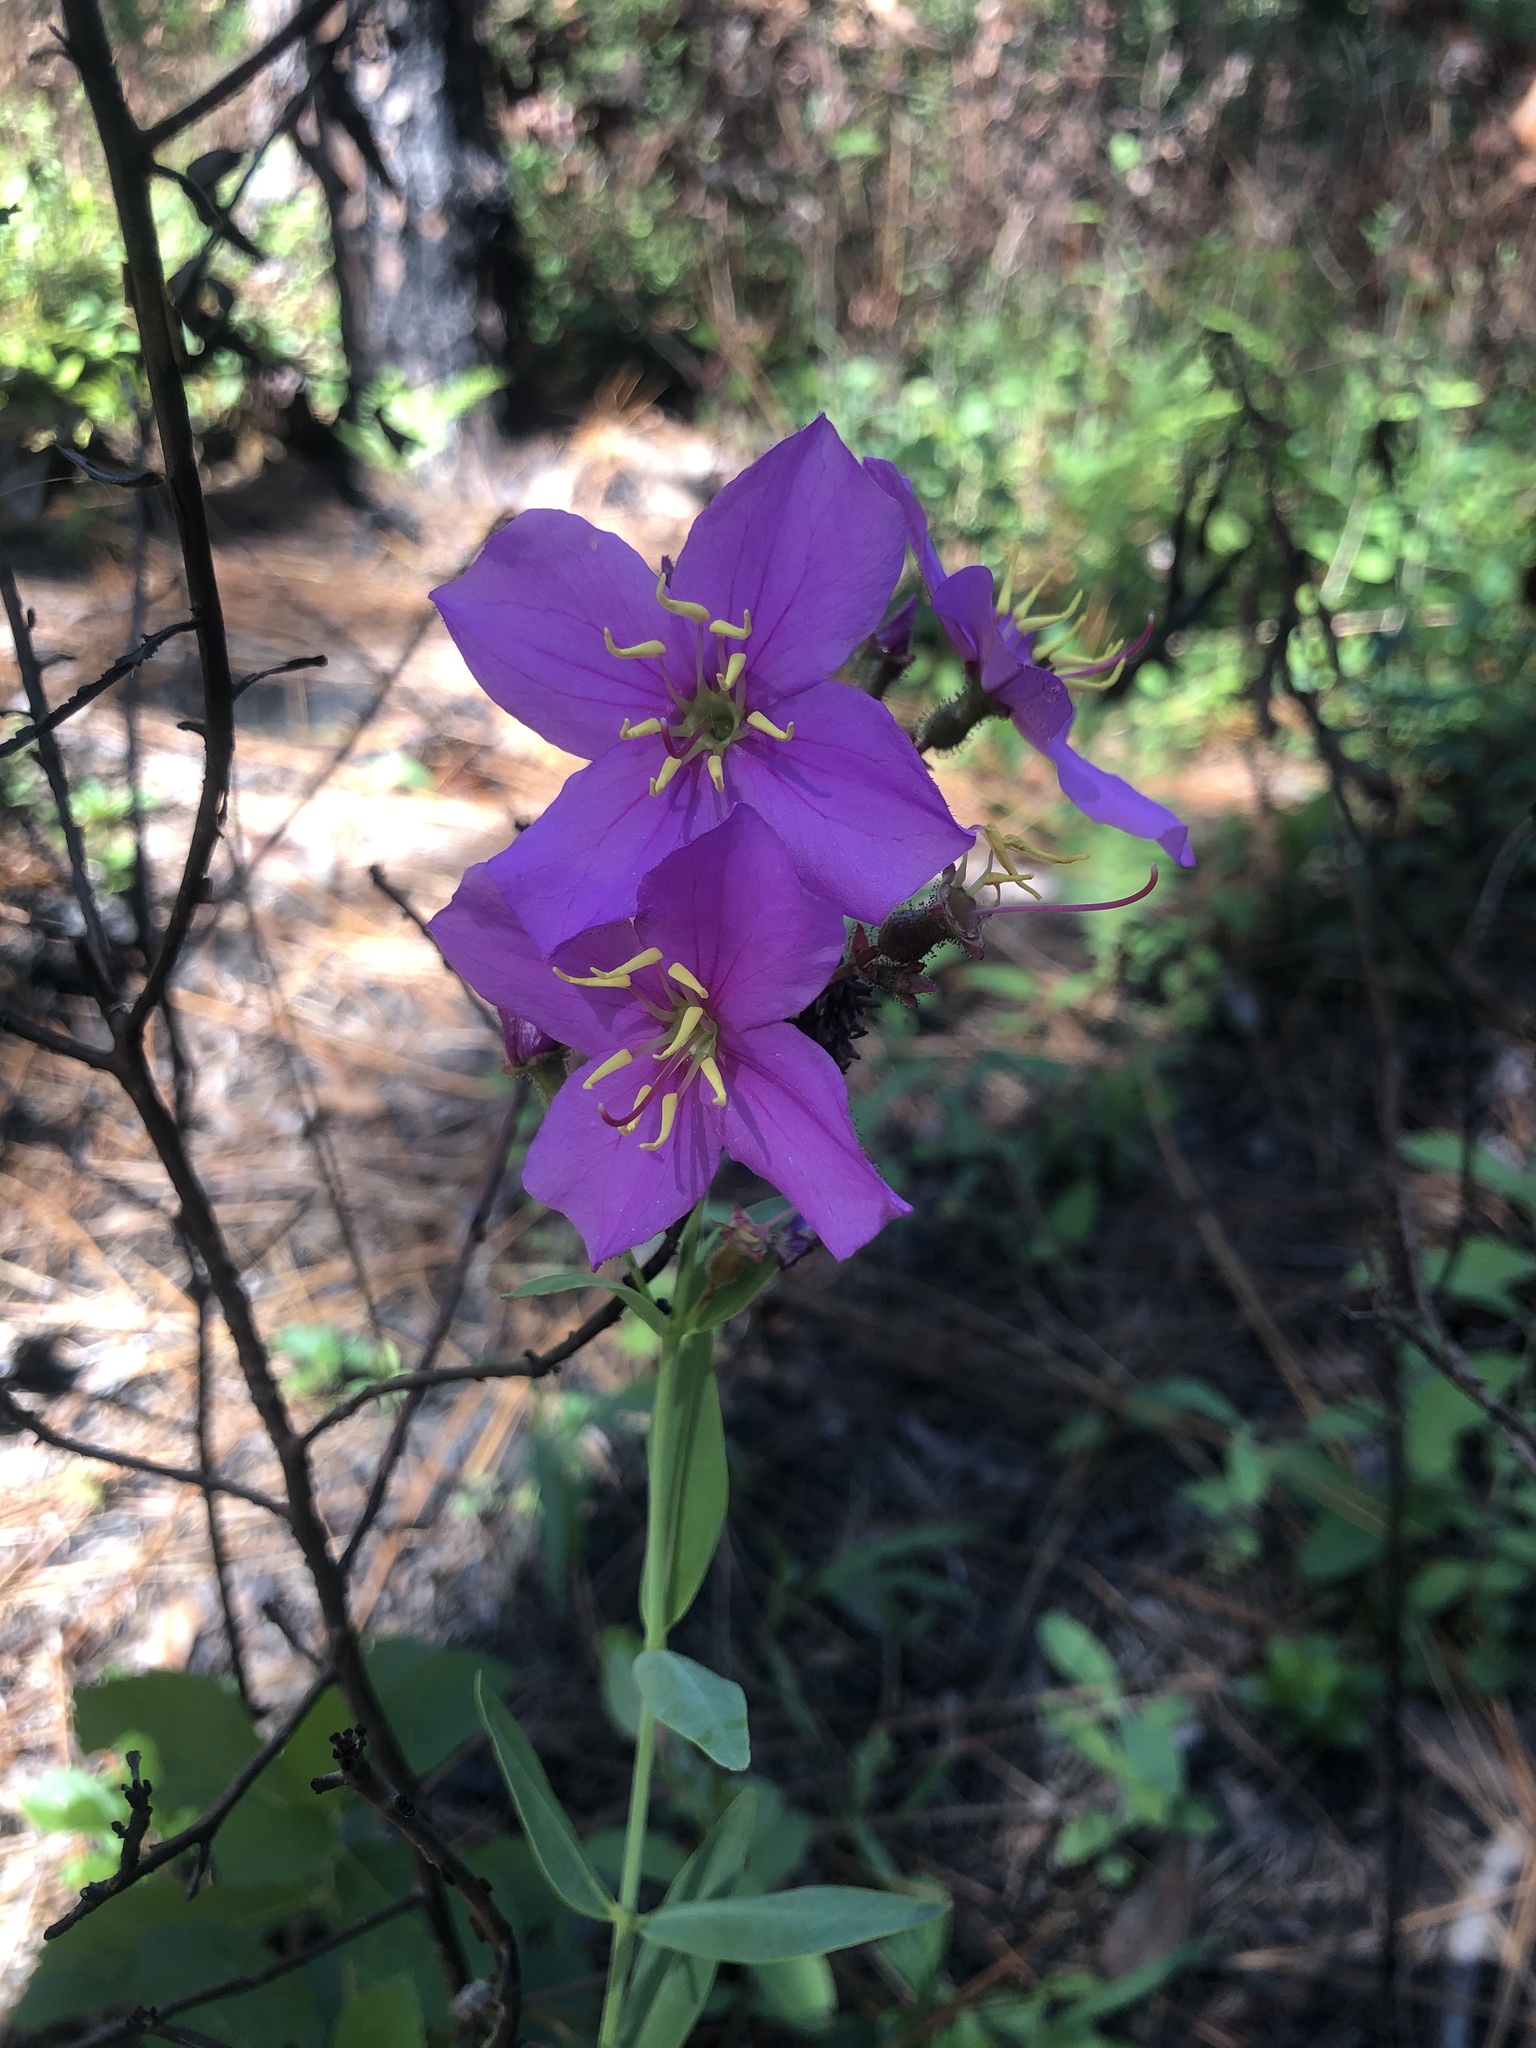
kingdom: Plantae
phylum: Tracheophyta
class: Magnoliopsida
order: Myrtales
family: Melastomataceae
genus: Rhexia
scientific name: Rhexia alifanus
